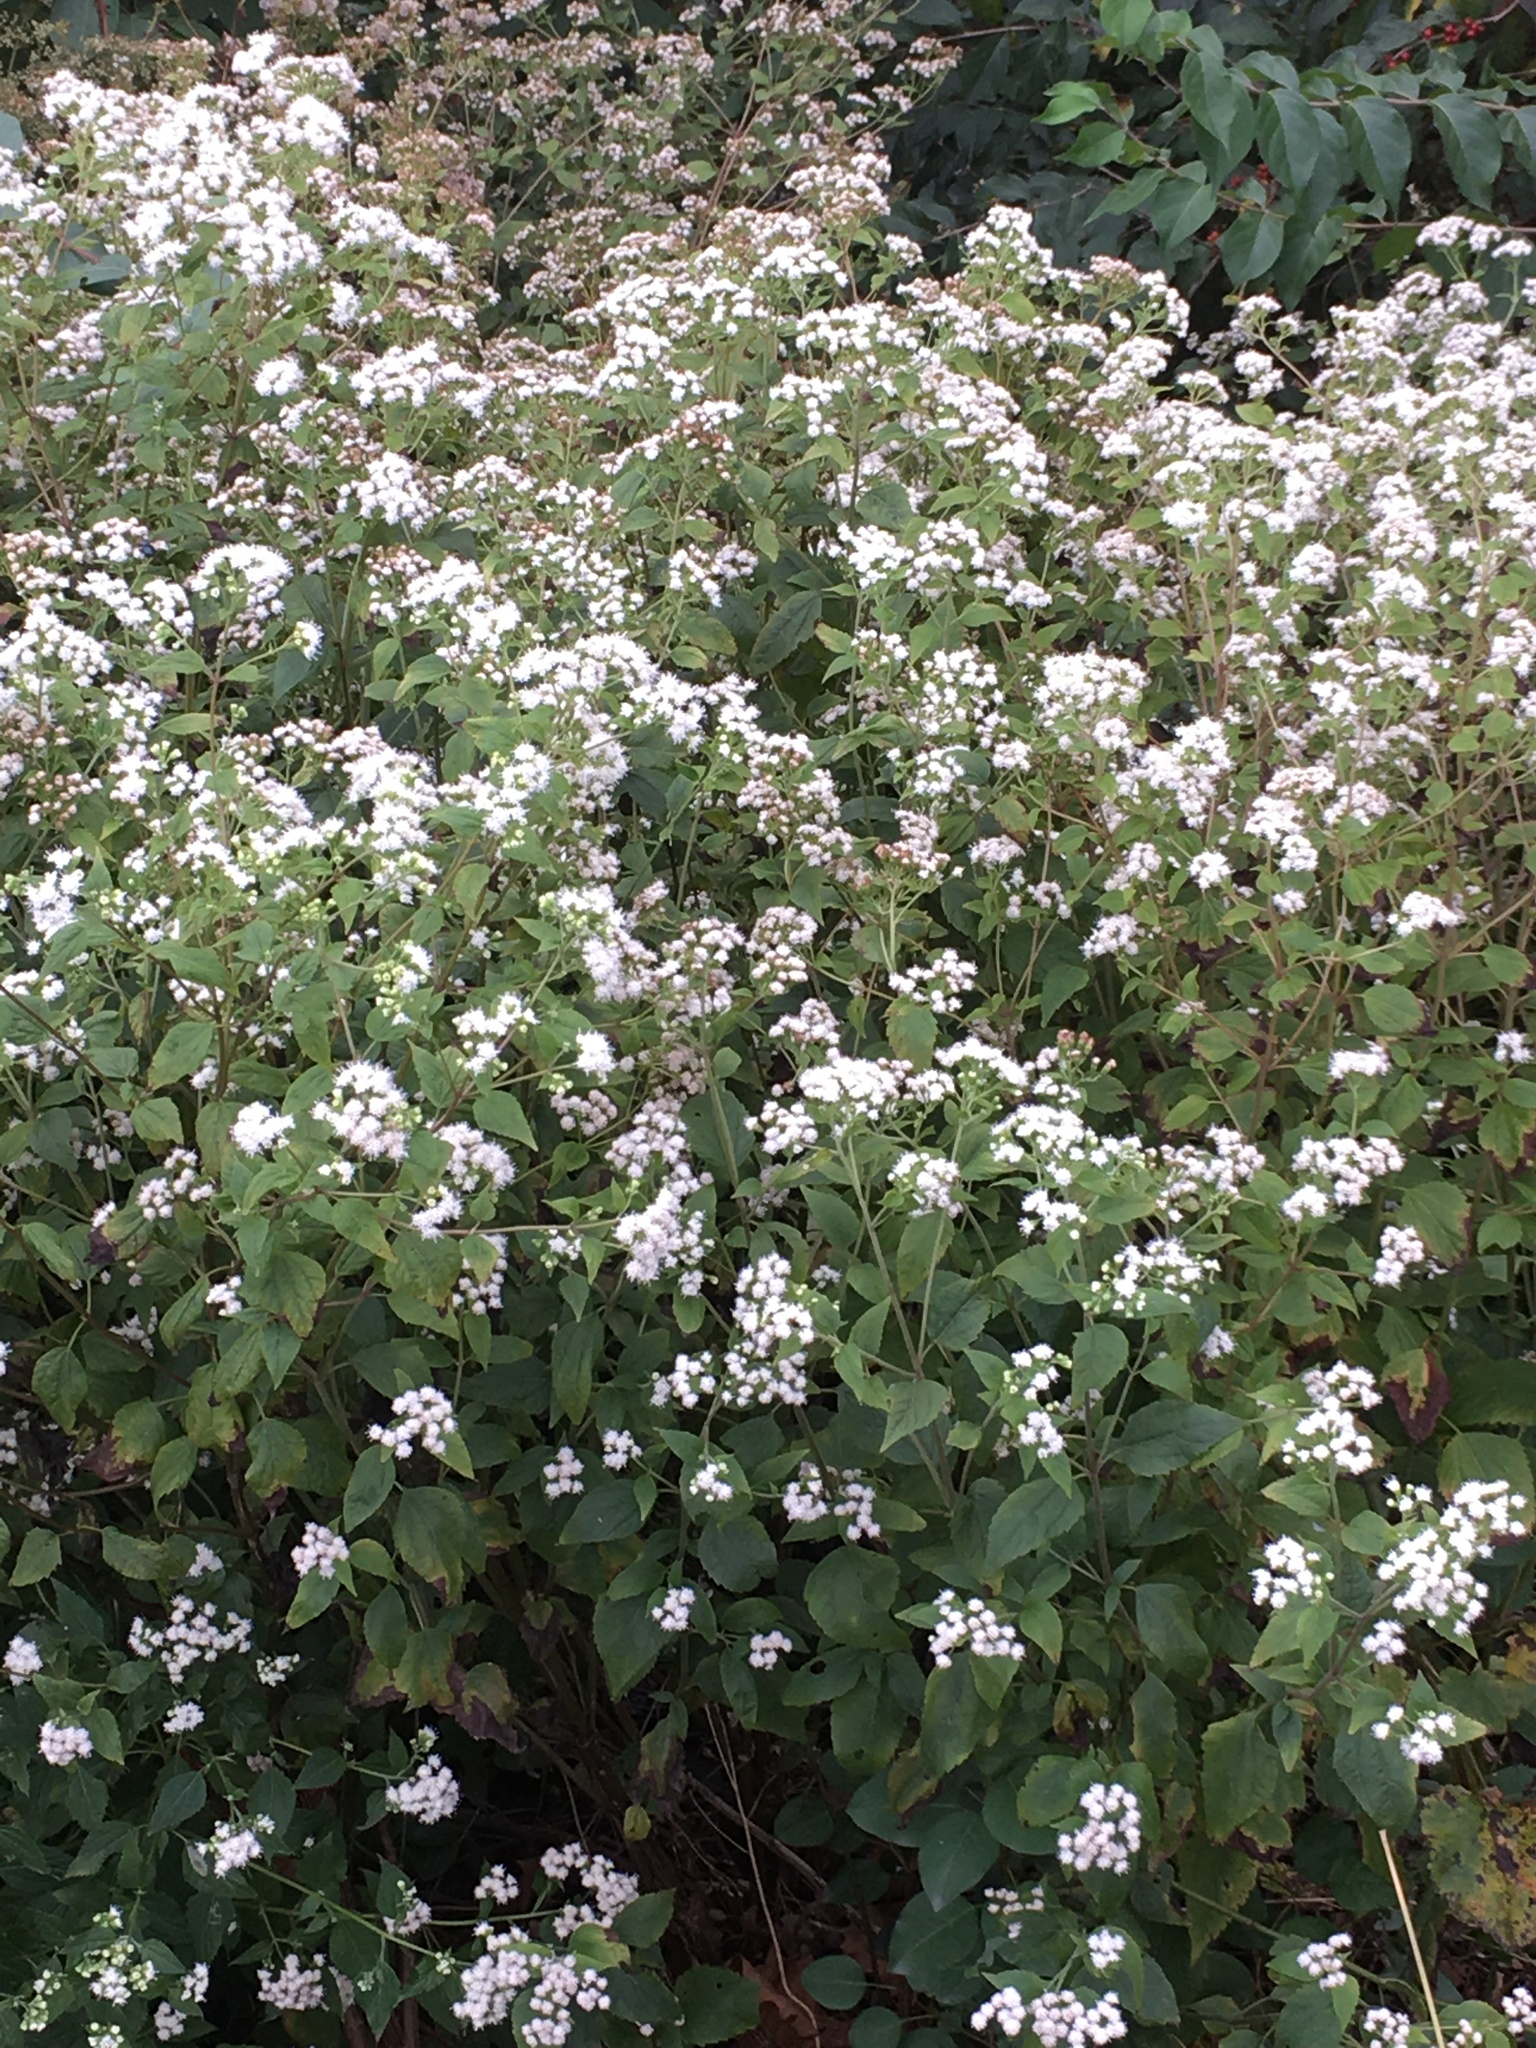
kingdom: Plantae
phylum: Tracheophyta
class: Magnoliopsida
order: Asterales
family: Asteraceae
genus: Ageratina
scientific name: Ageratina altissima
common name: White snakeroot
